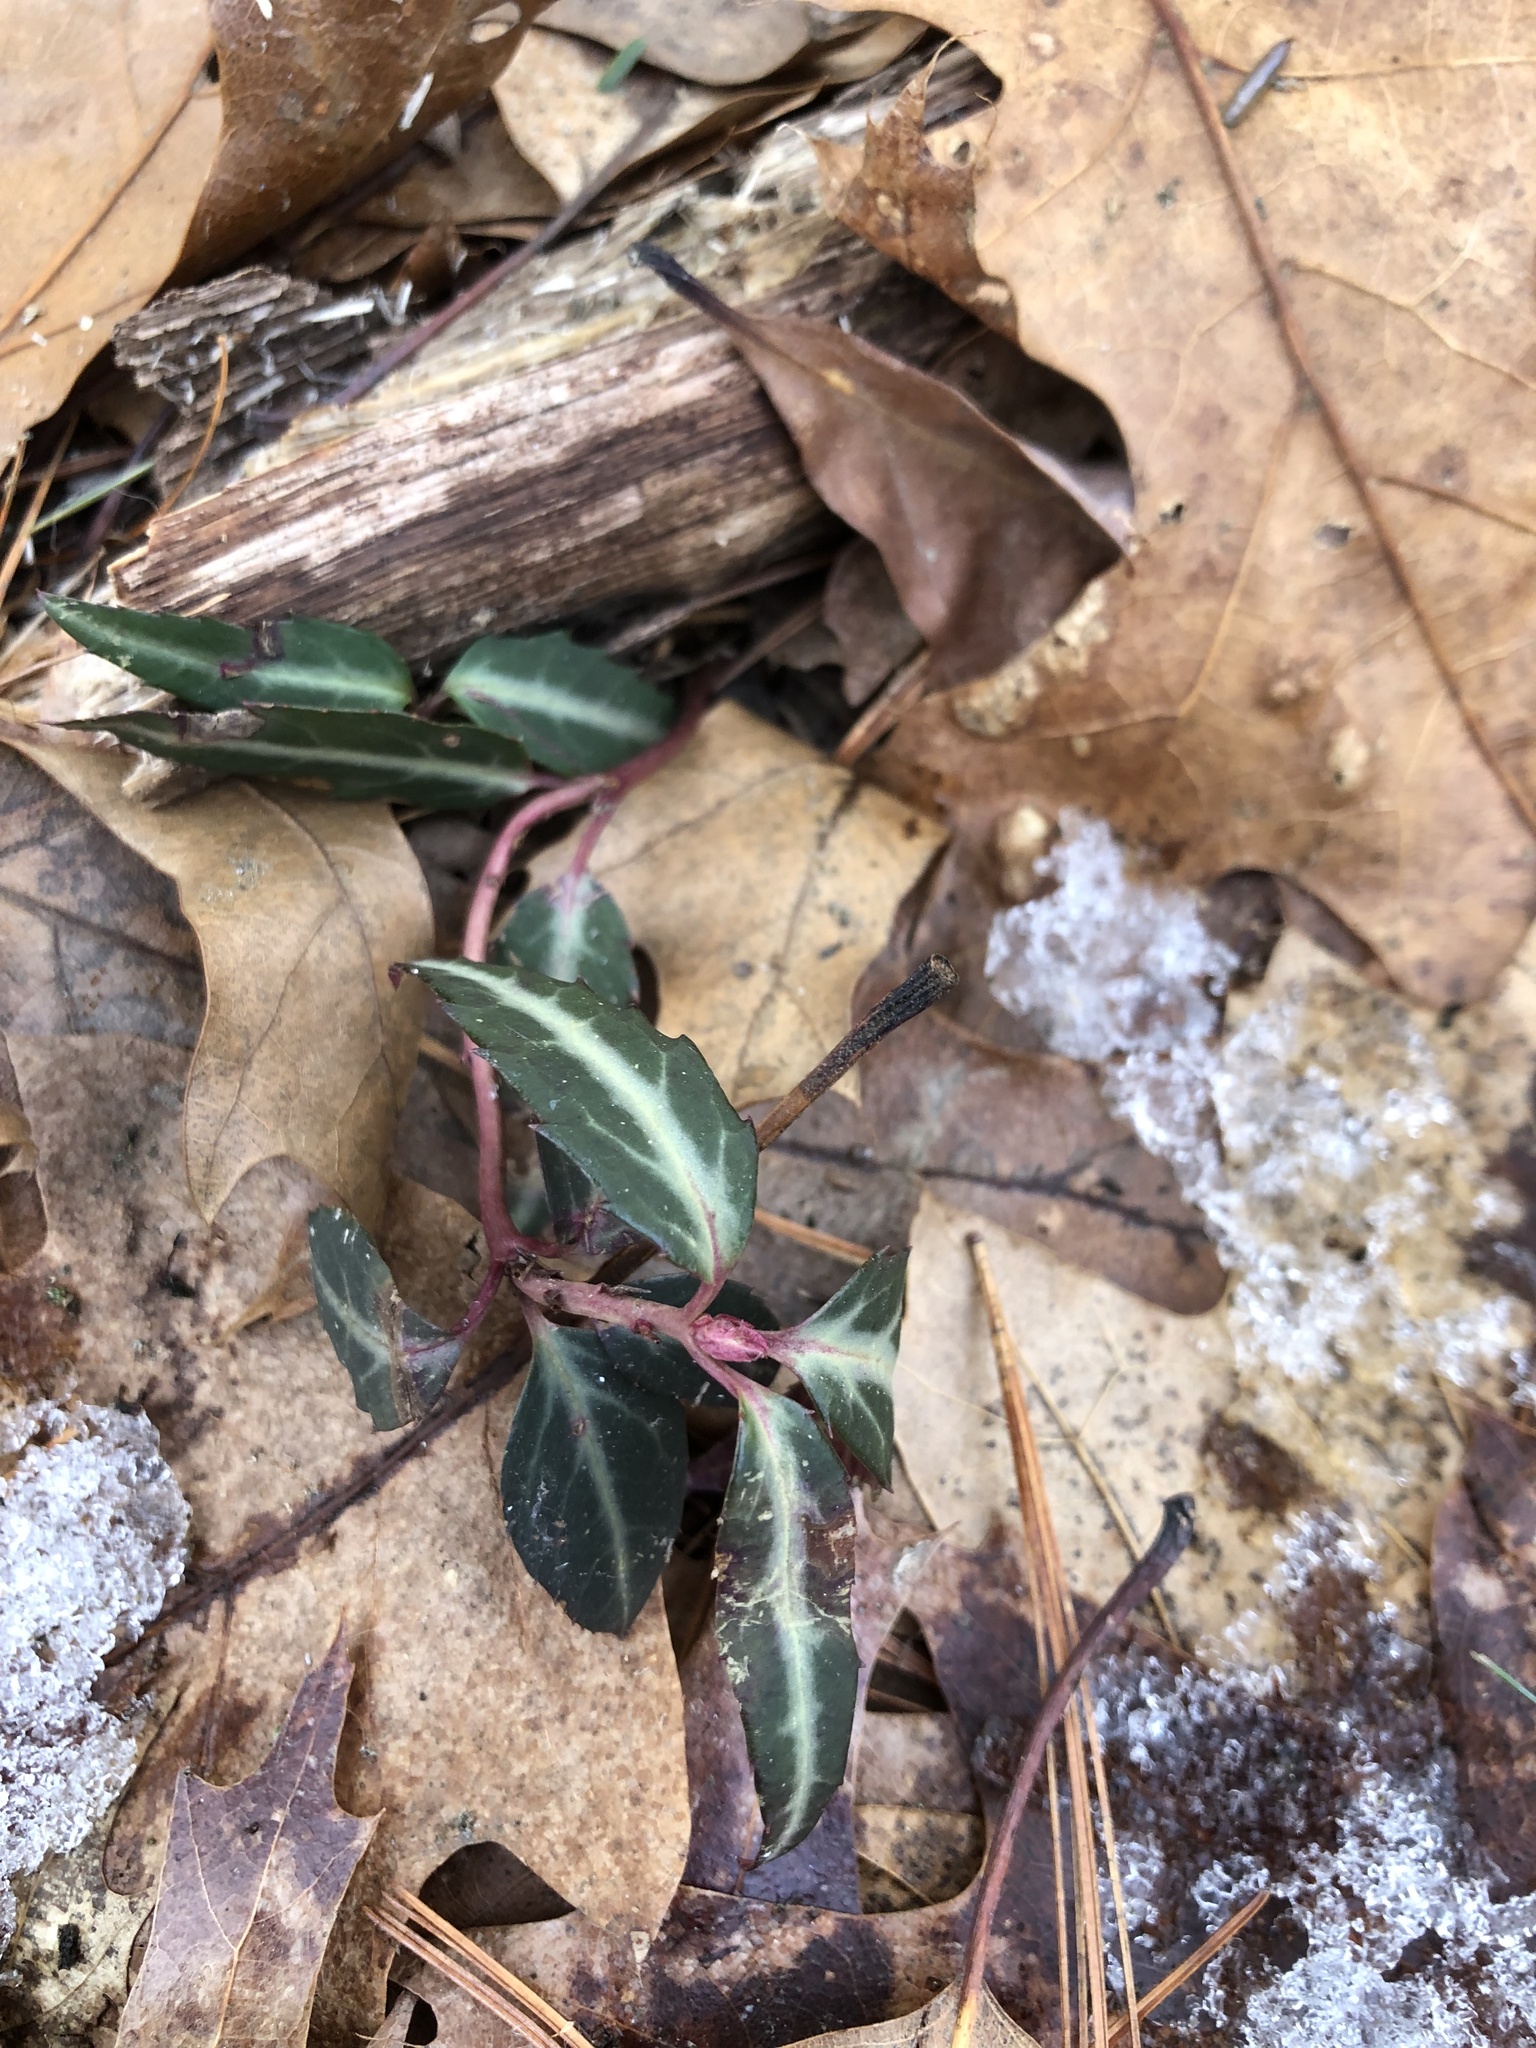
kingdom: Plantae
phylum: Tracheophyta
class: Magnoliopsida
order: Ericales
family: Ericaceae
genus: Chimaphila
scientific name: Chimaphila maculata
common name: Spotted pipsissewa
